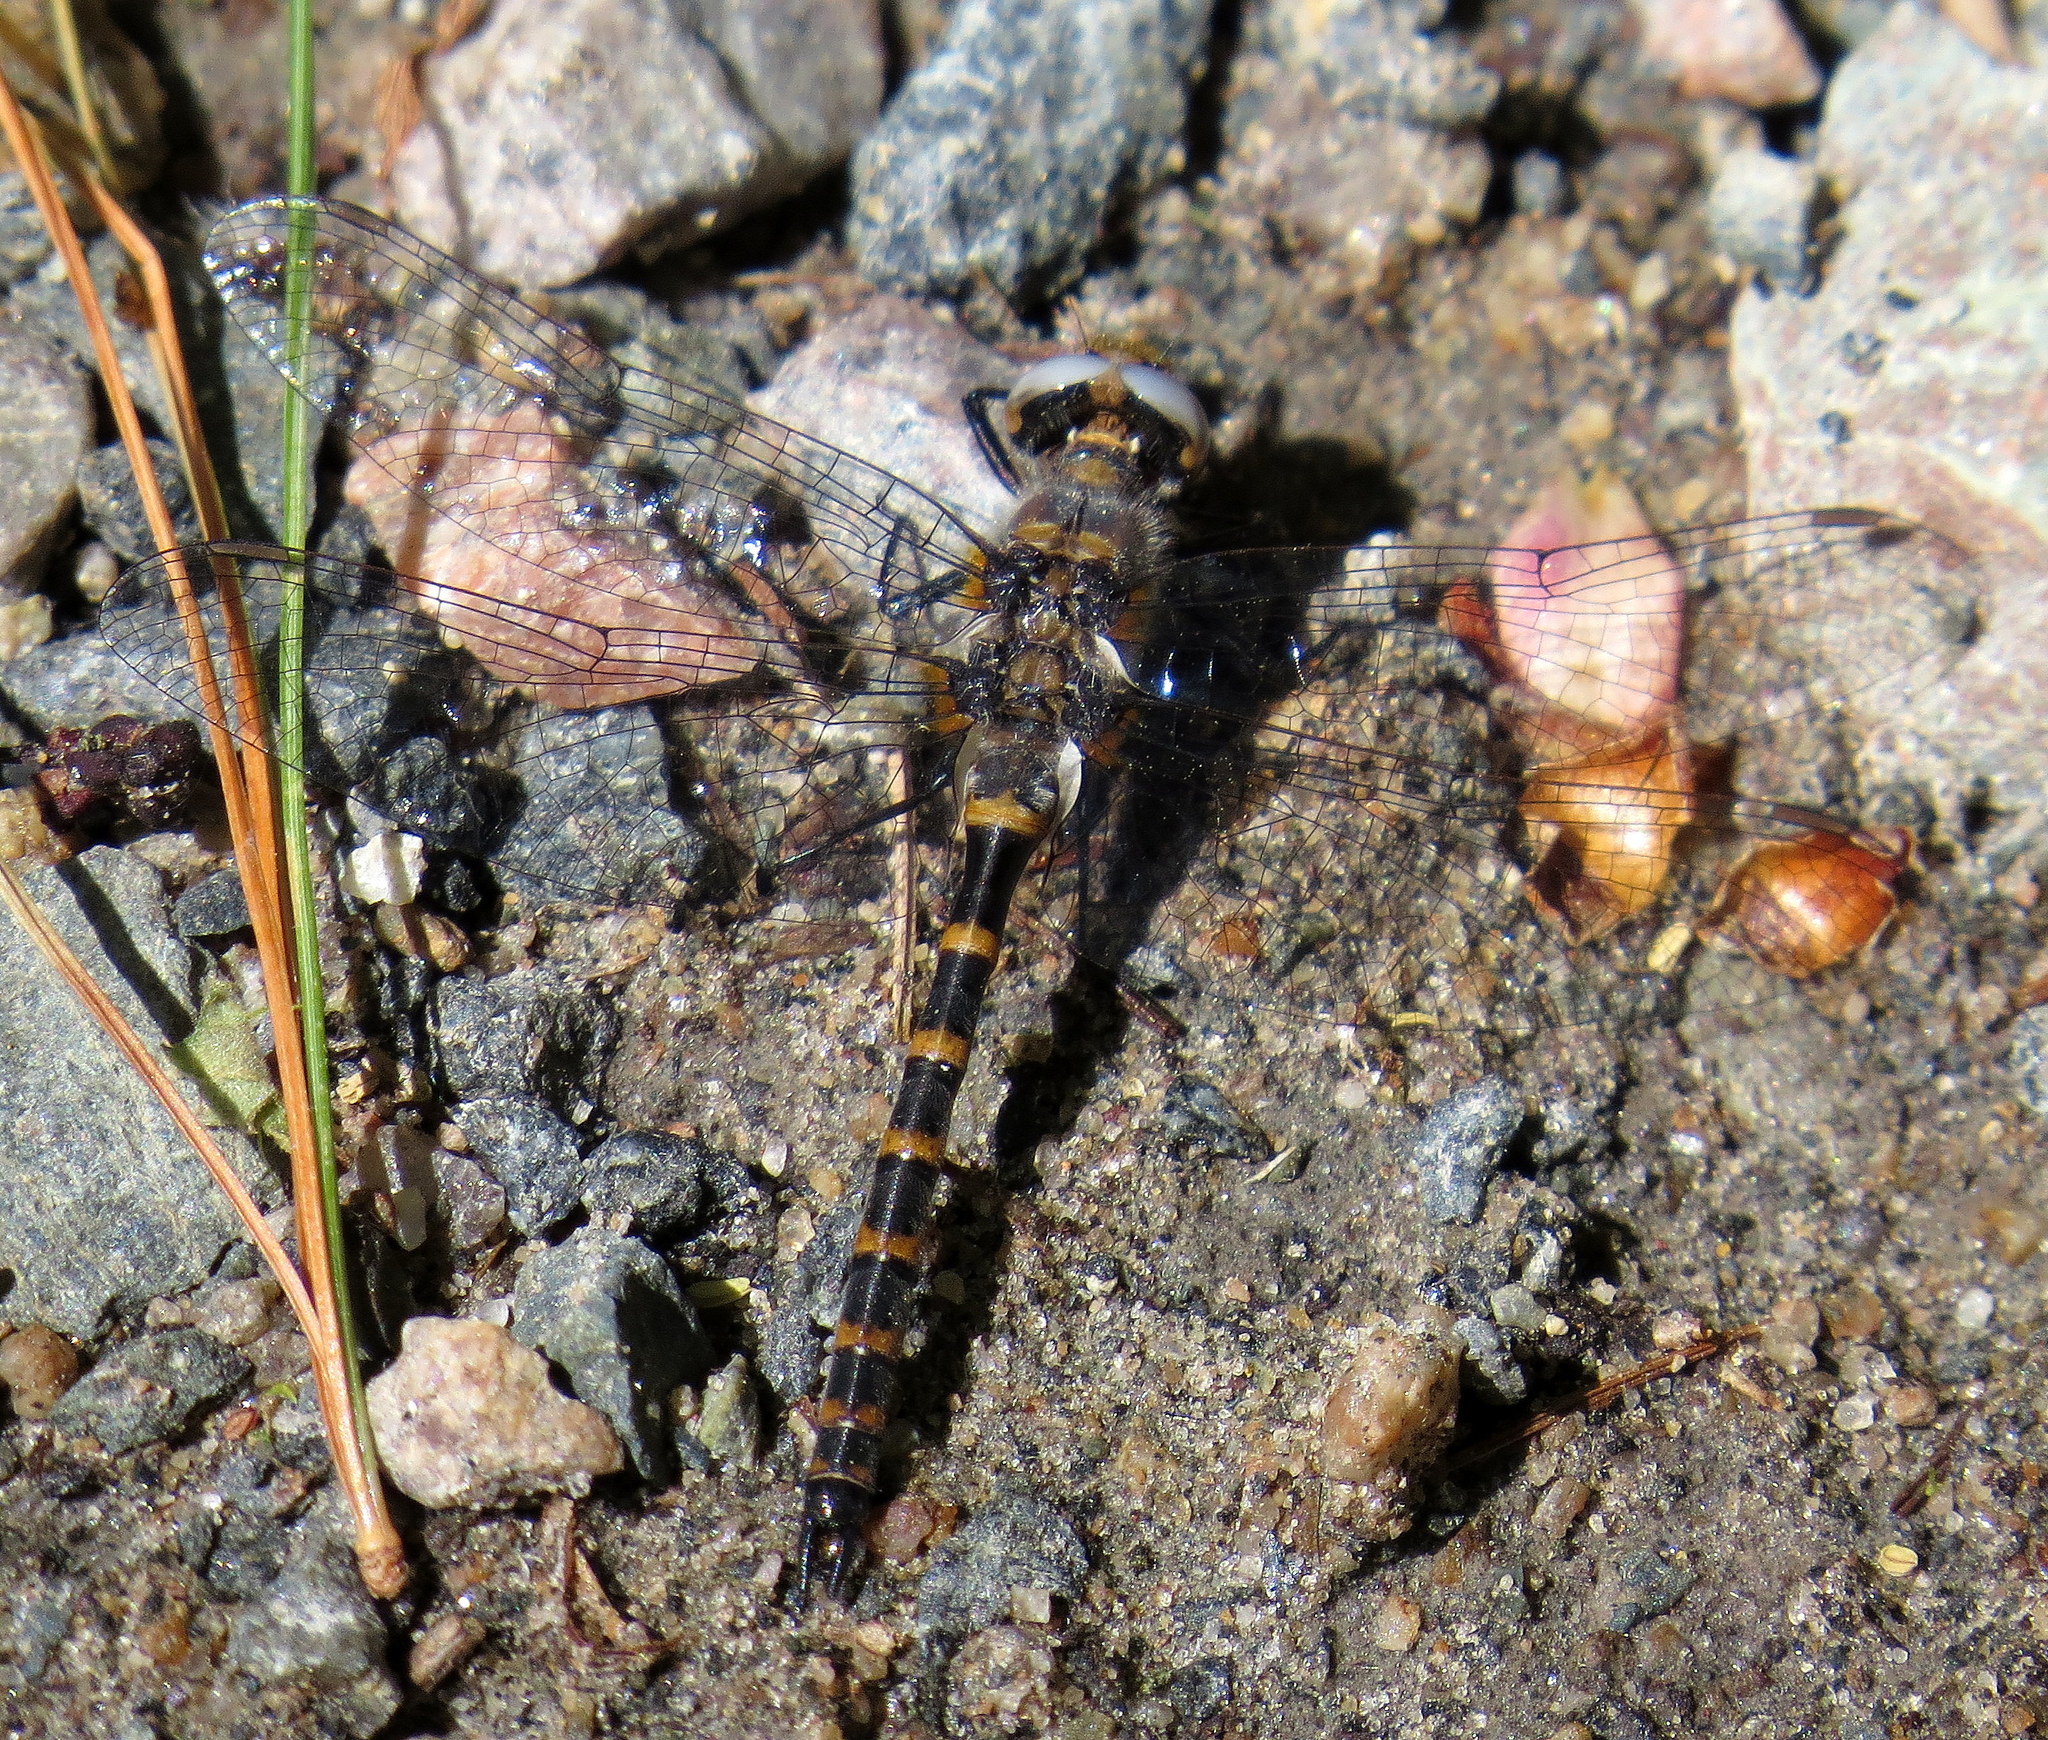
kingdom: Animalia
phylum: Arthropoda
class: Insecta
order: Odonata
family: Corduliidae
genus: Williamsonia
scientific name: Williamsonia lintneri
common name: Ringed boghaunter
